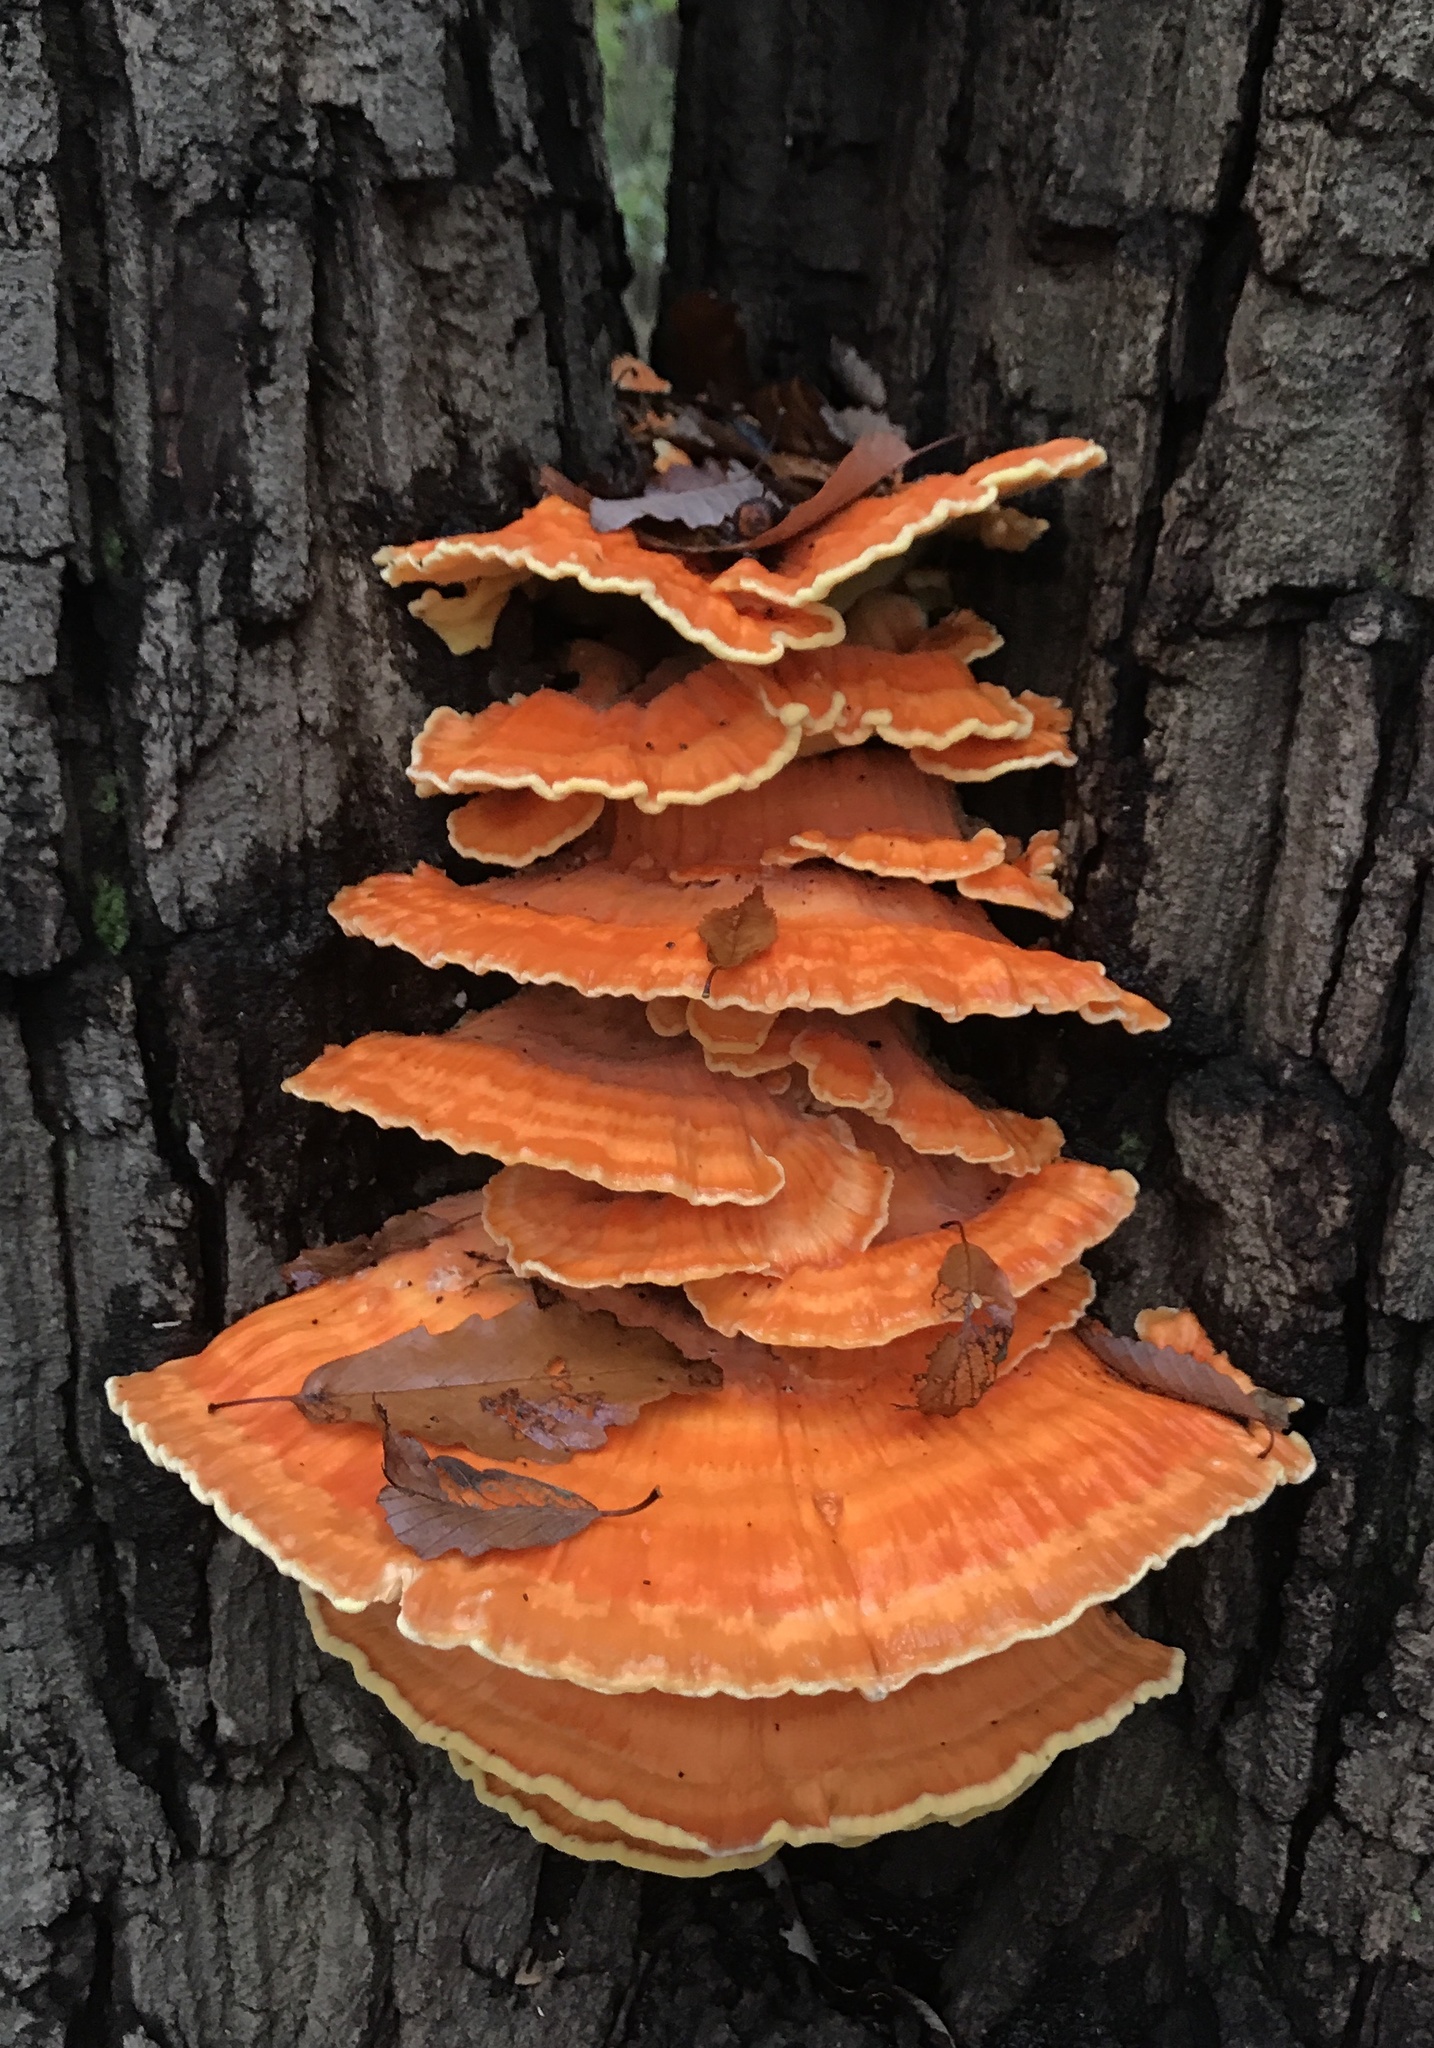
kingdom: Fungi
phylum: Basidiomycota
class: Agaricomycetes
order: Polyporales
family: Laetiporaceae
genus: Laetiporus
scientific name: Laetiporus sulphureus
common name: Chicken of the woods
